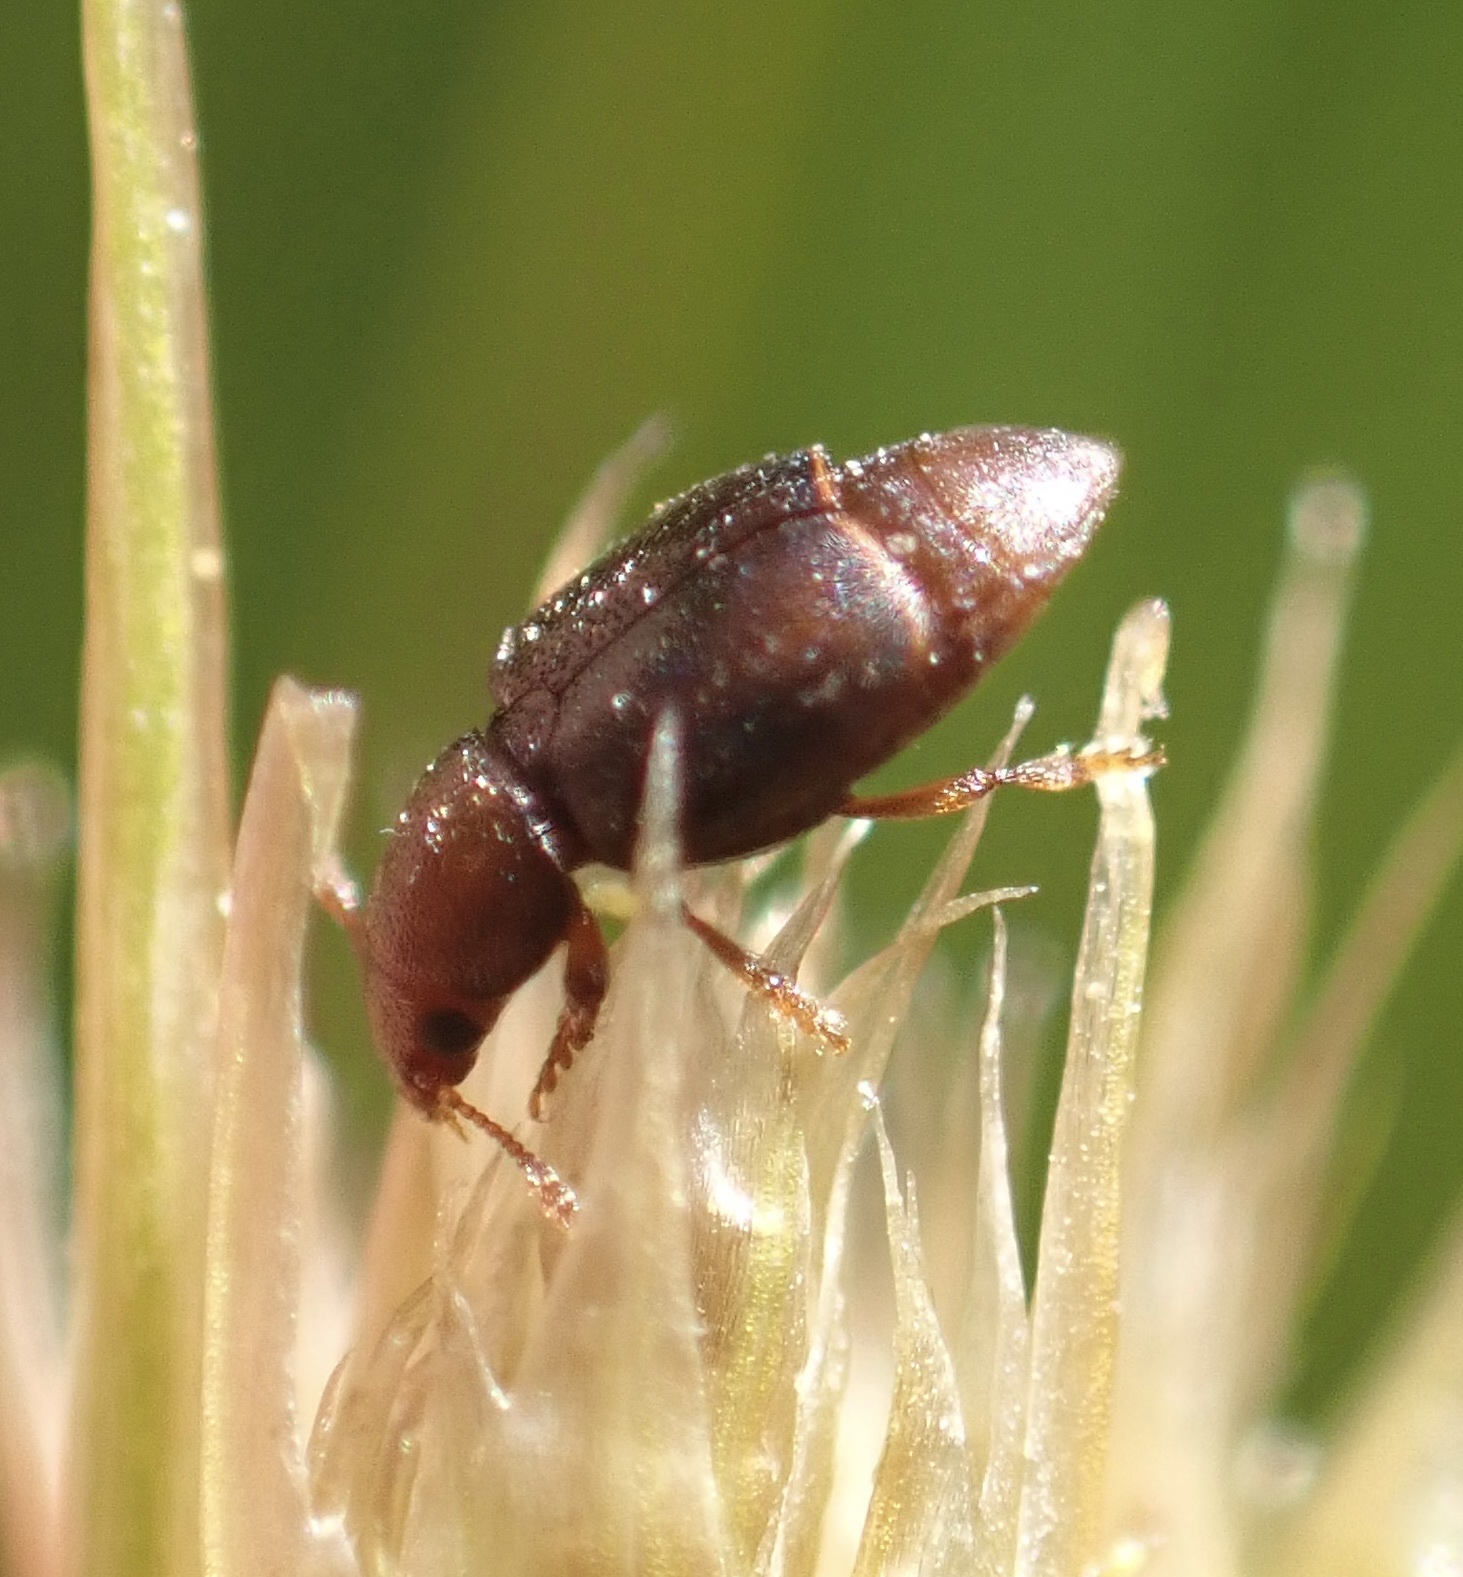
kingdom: Animalia
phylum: Arthropoda
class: Insecta
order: Coleoptera
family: Kateretidae
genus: Kateretes
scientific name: Kateretes rufilabris
